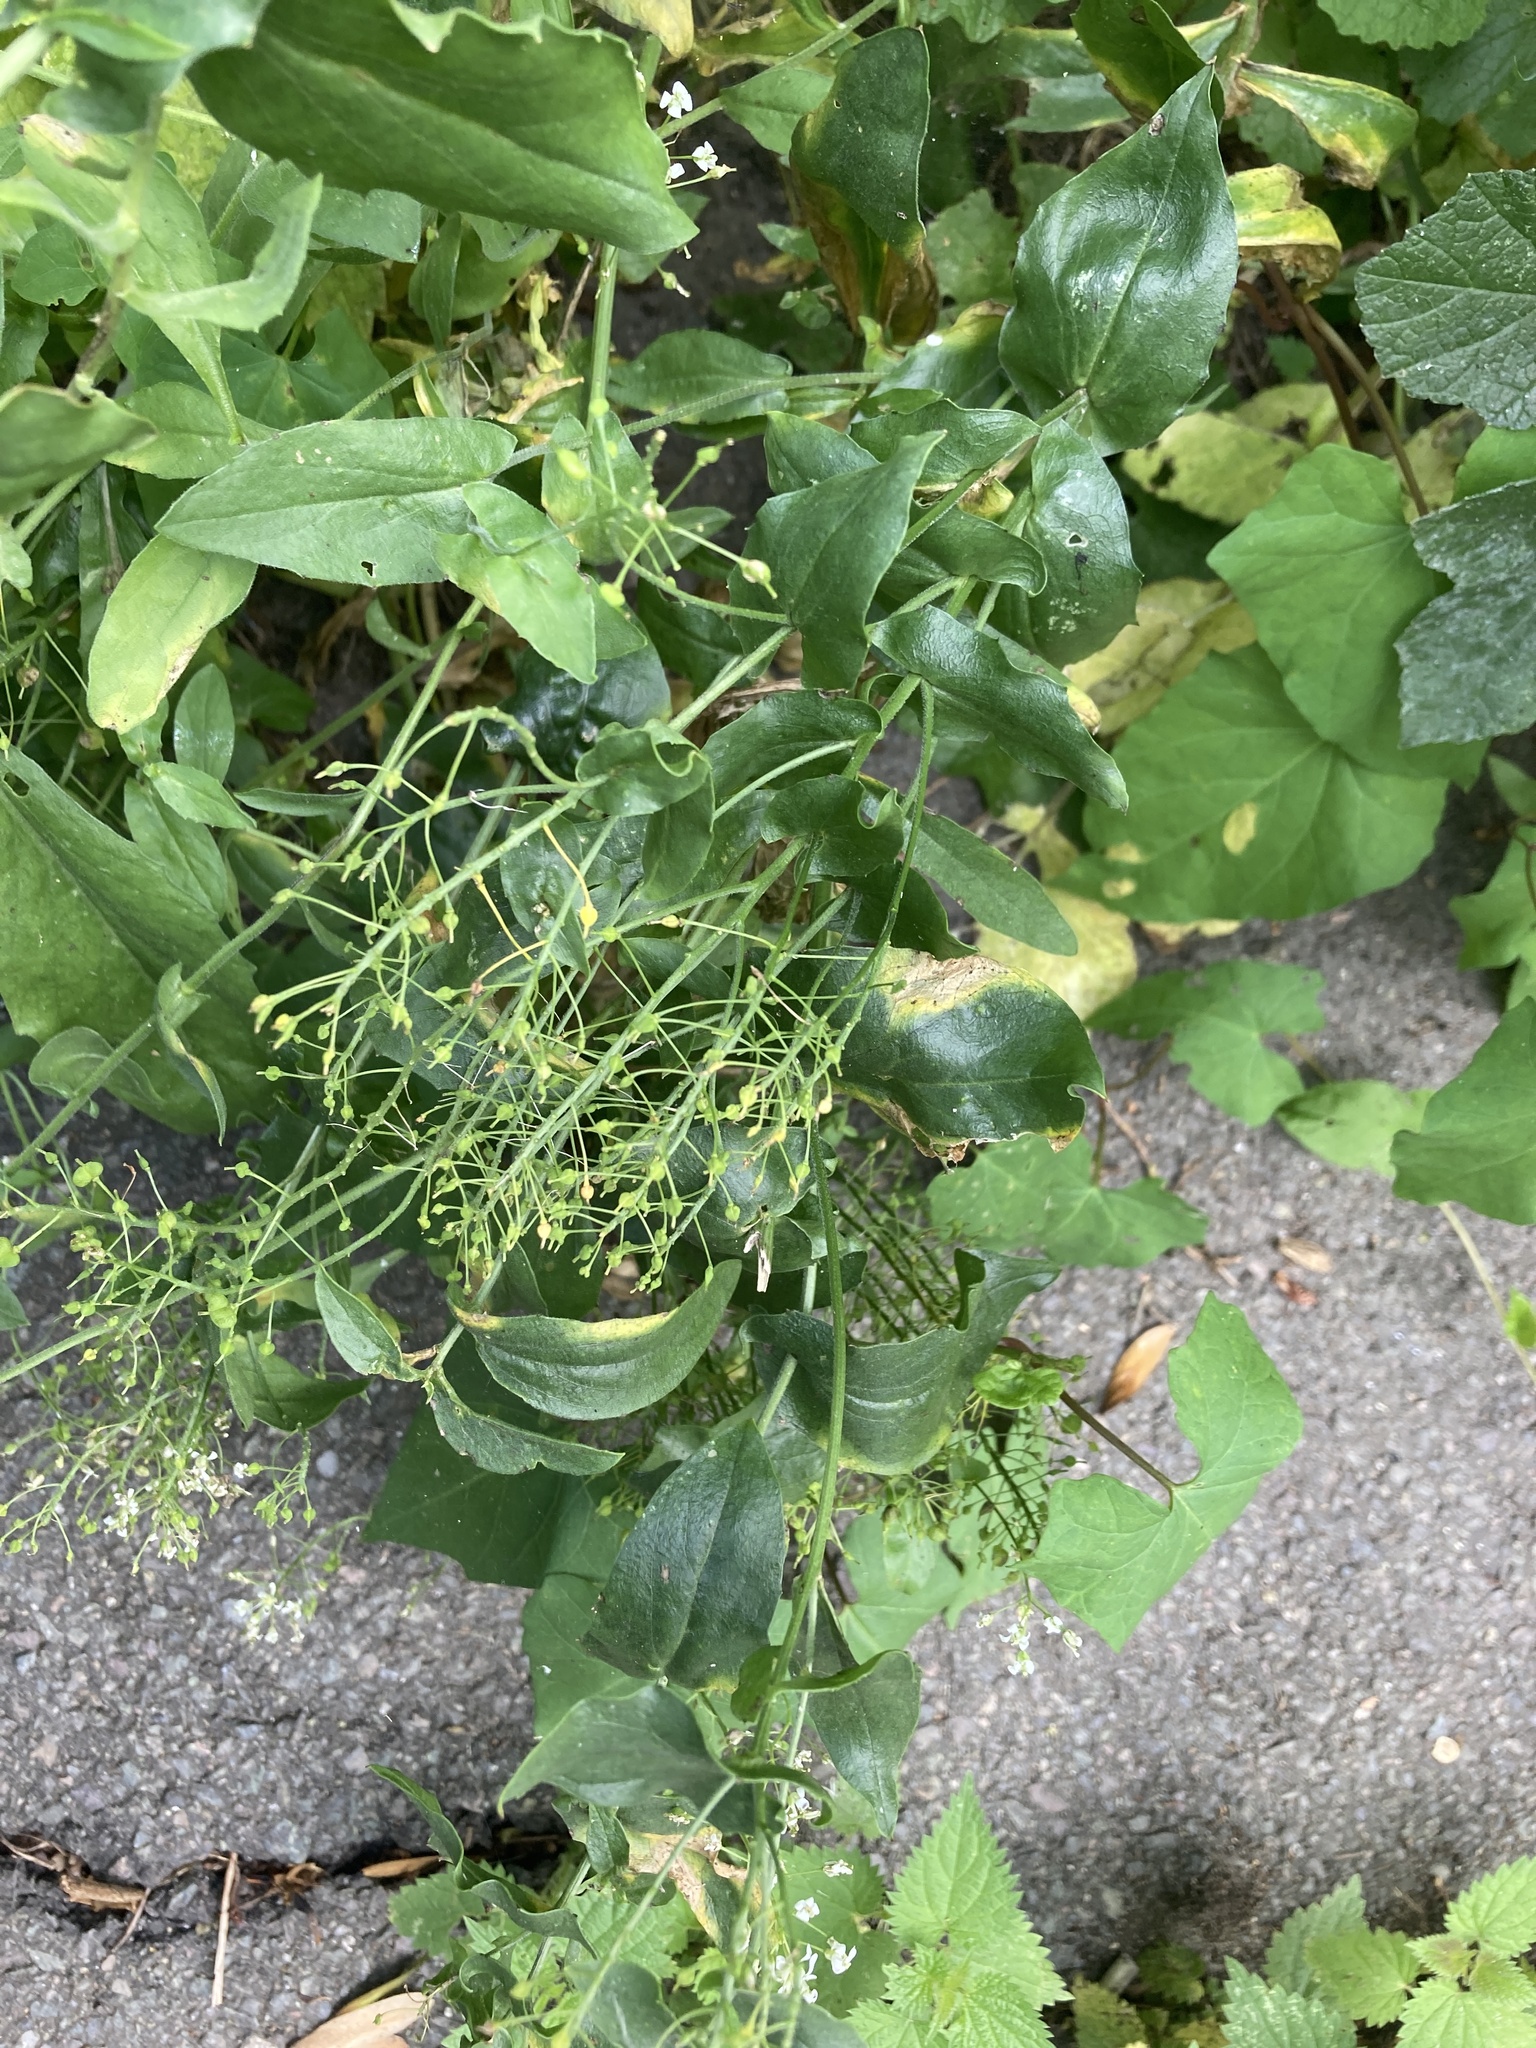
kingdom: Plantae
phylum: Tracheophyta
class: Magnoliopsida
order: Brassicales
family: Brassicaceae
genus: Lepidium
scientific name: Lepidium draba
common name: Hoary cress
